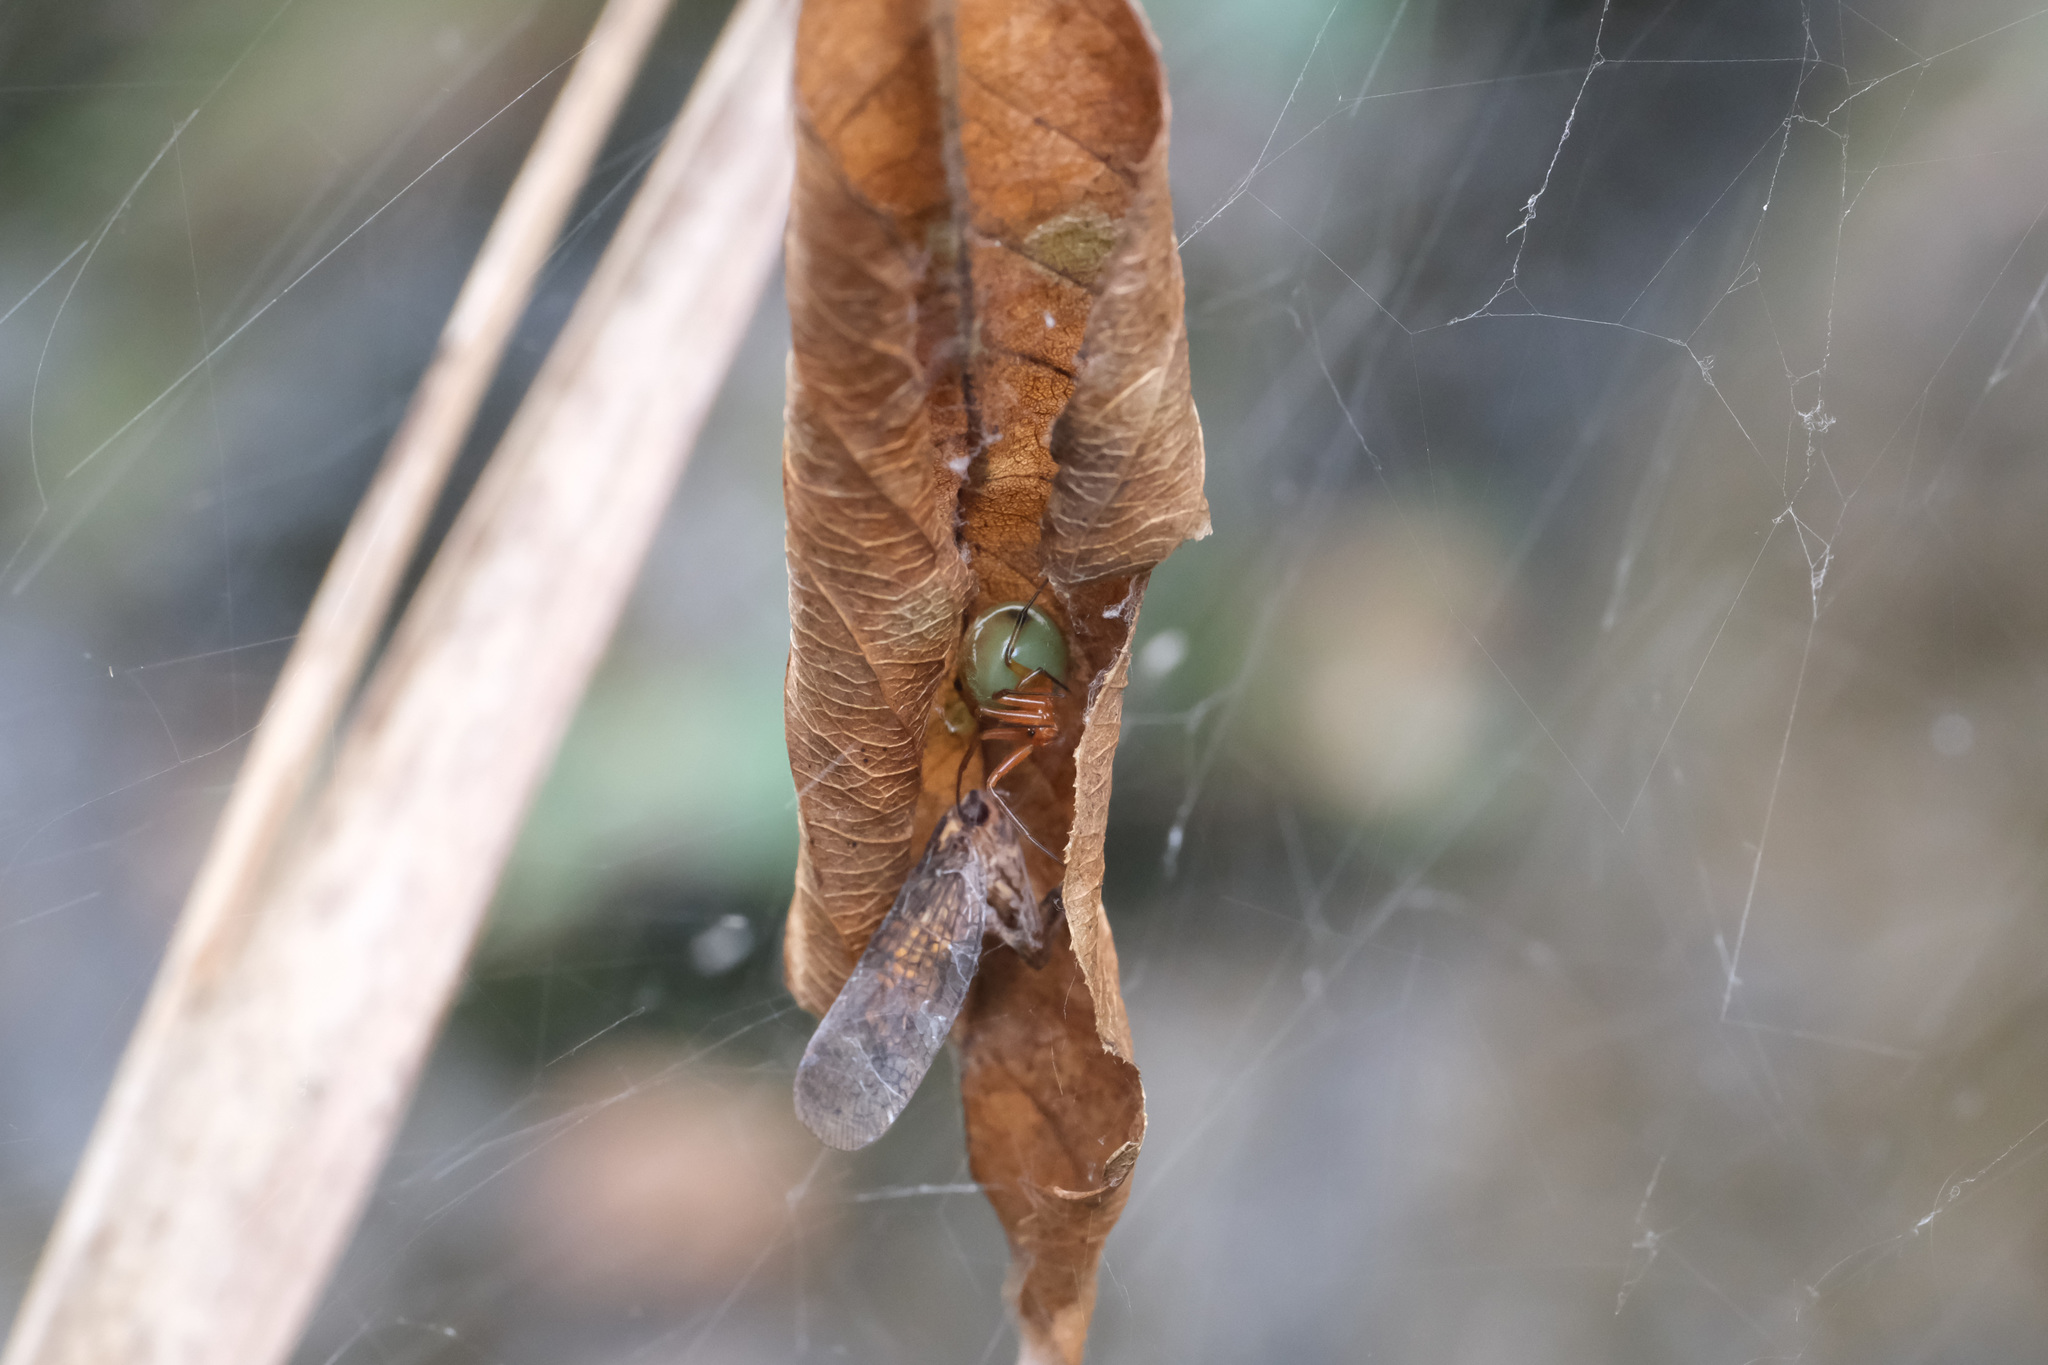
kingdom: Animalia
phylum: Arthropoda
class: Arachnida
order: Araneae
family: Theridiidae
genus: Nihonhimea
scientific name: Nihonhimea japonica
